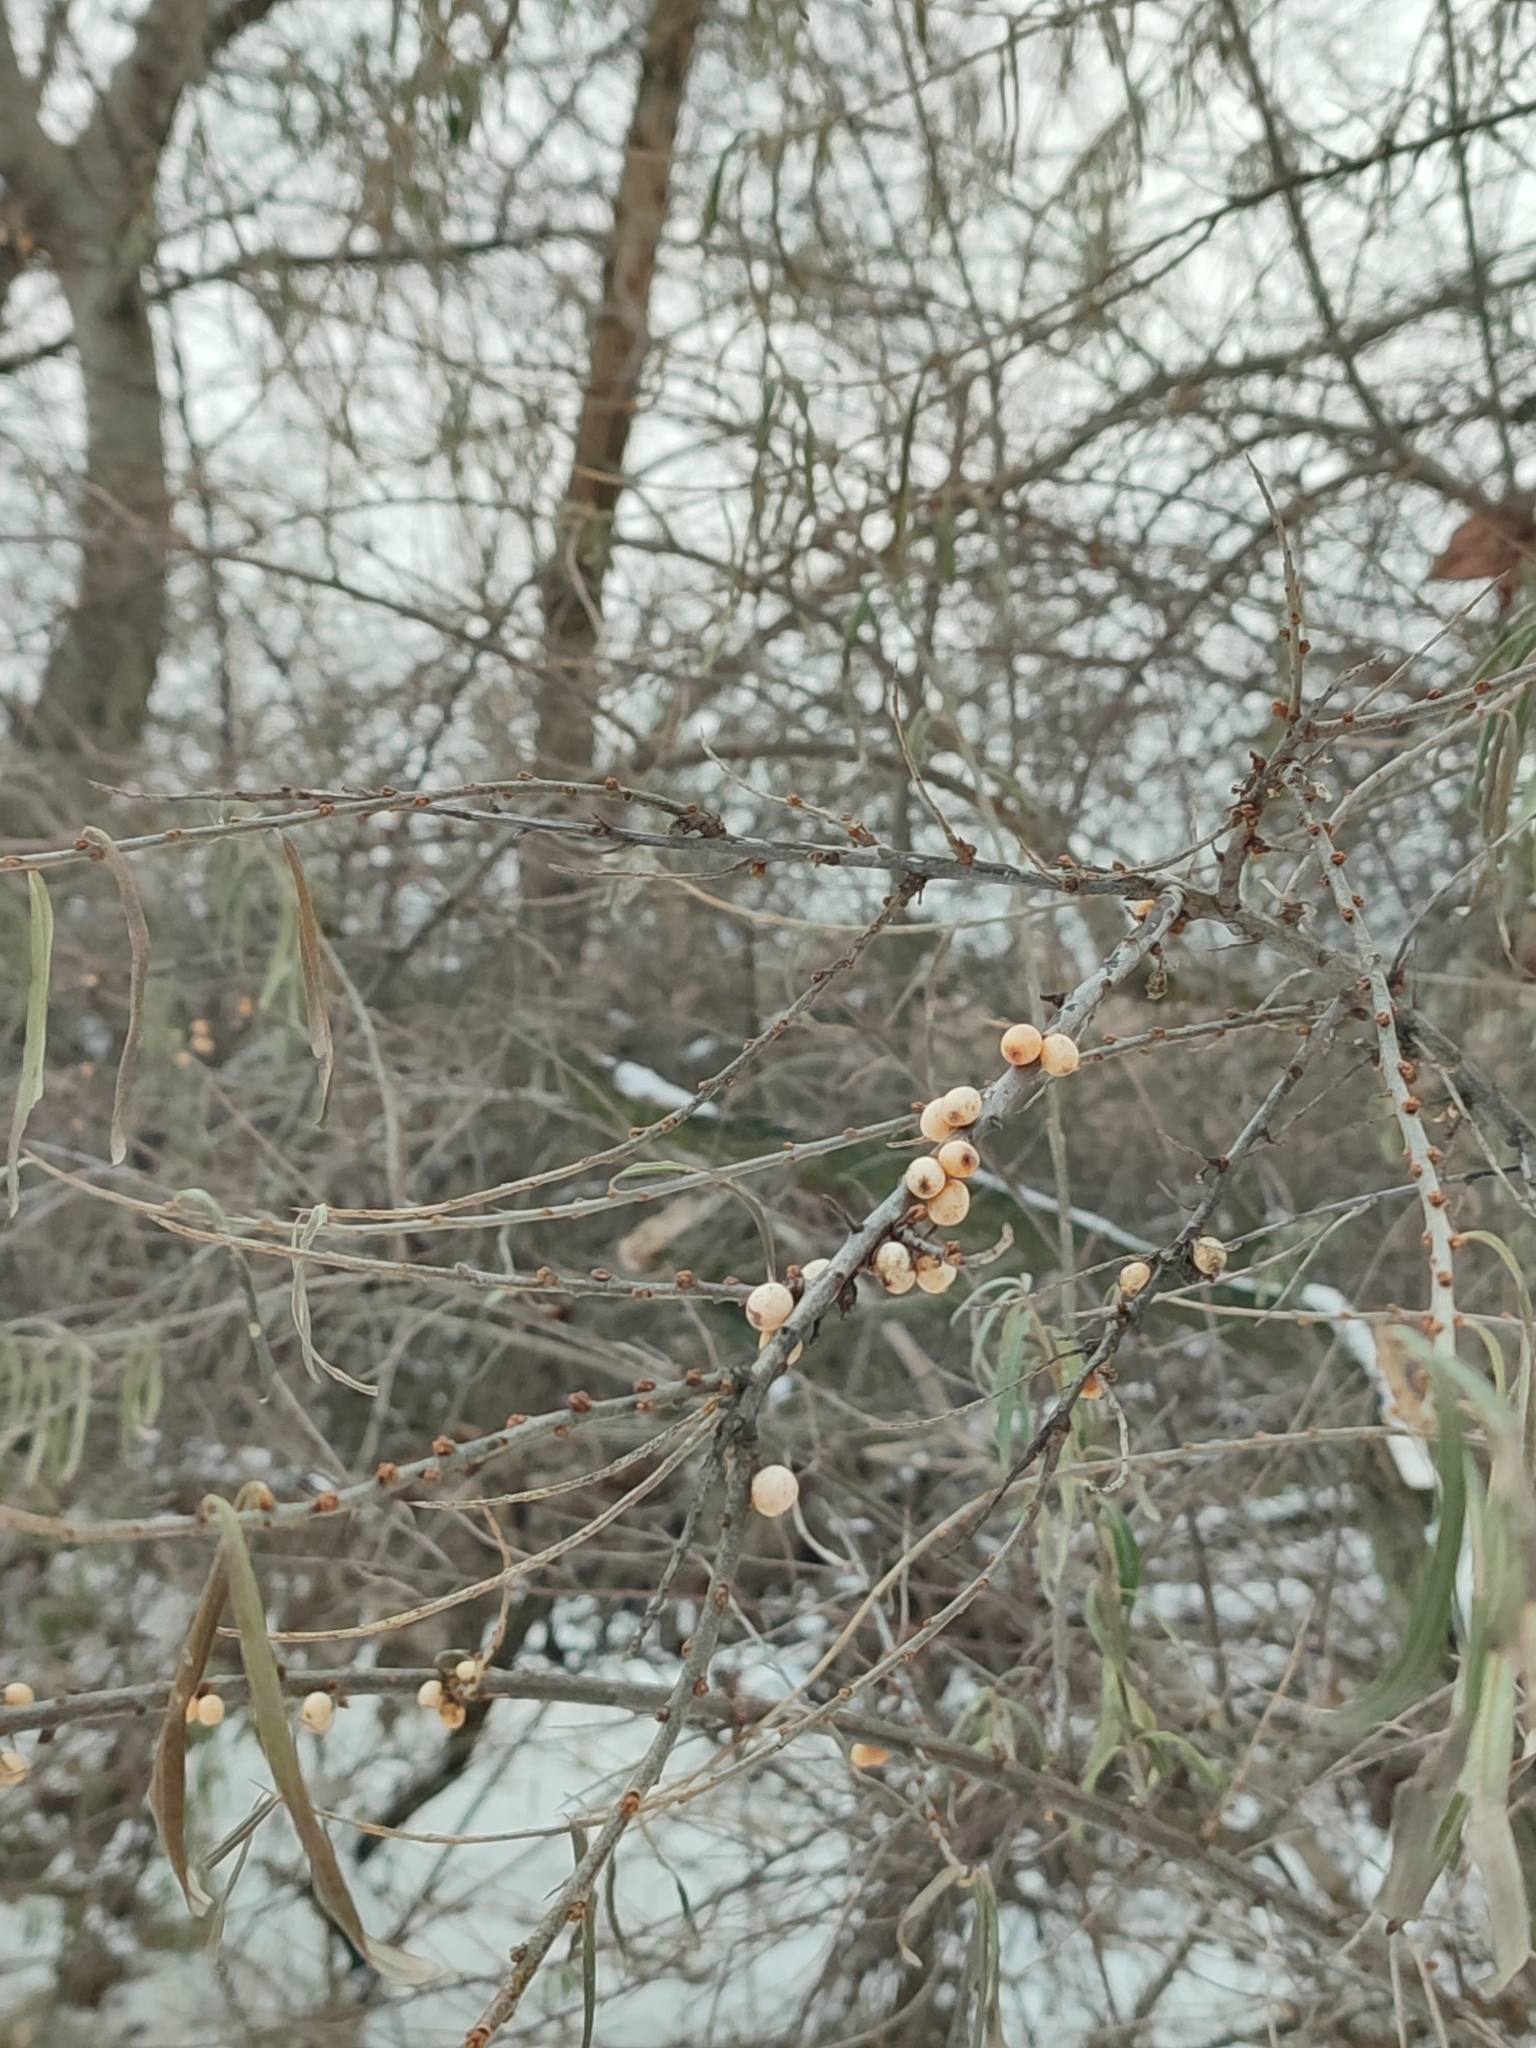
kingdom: Plantae
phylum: Tracheophyta
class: Magnoliopsida
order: Rosales
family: Elaeagnaceae
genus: Hippophae
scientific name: Hippophae rhamnoides
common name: Sea-buckthorn
